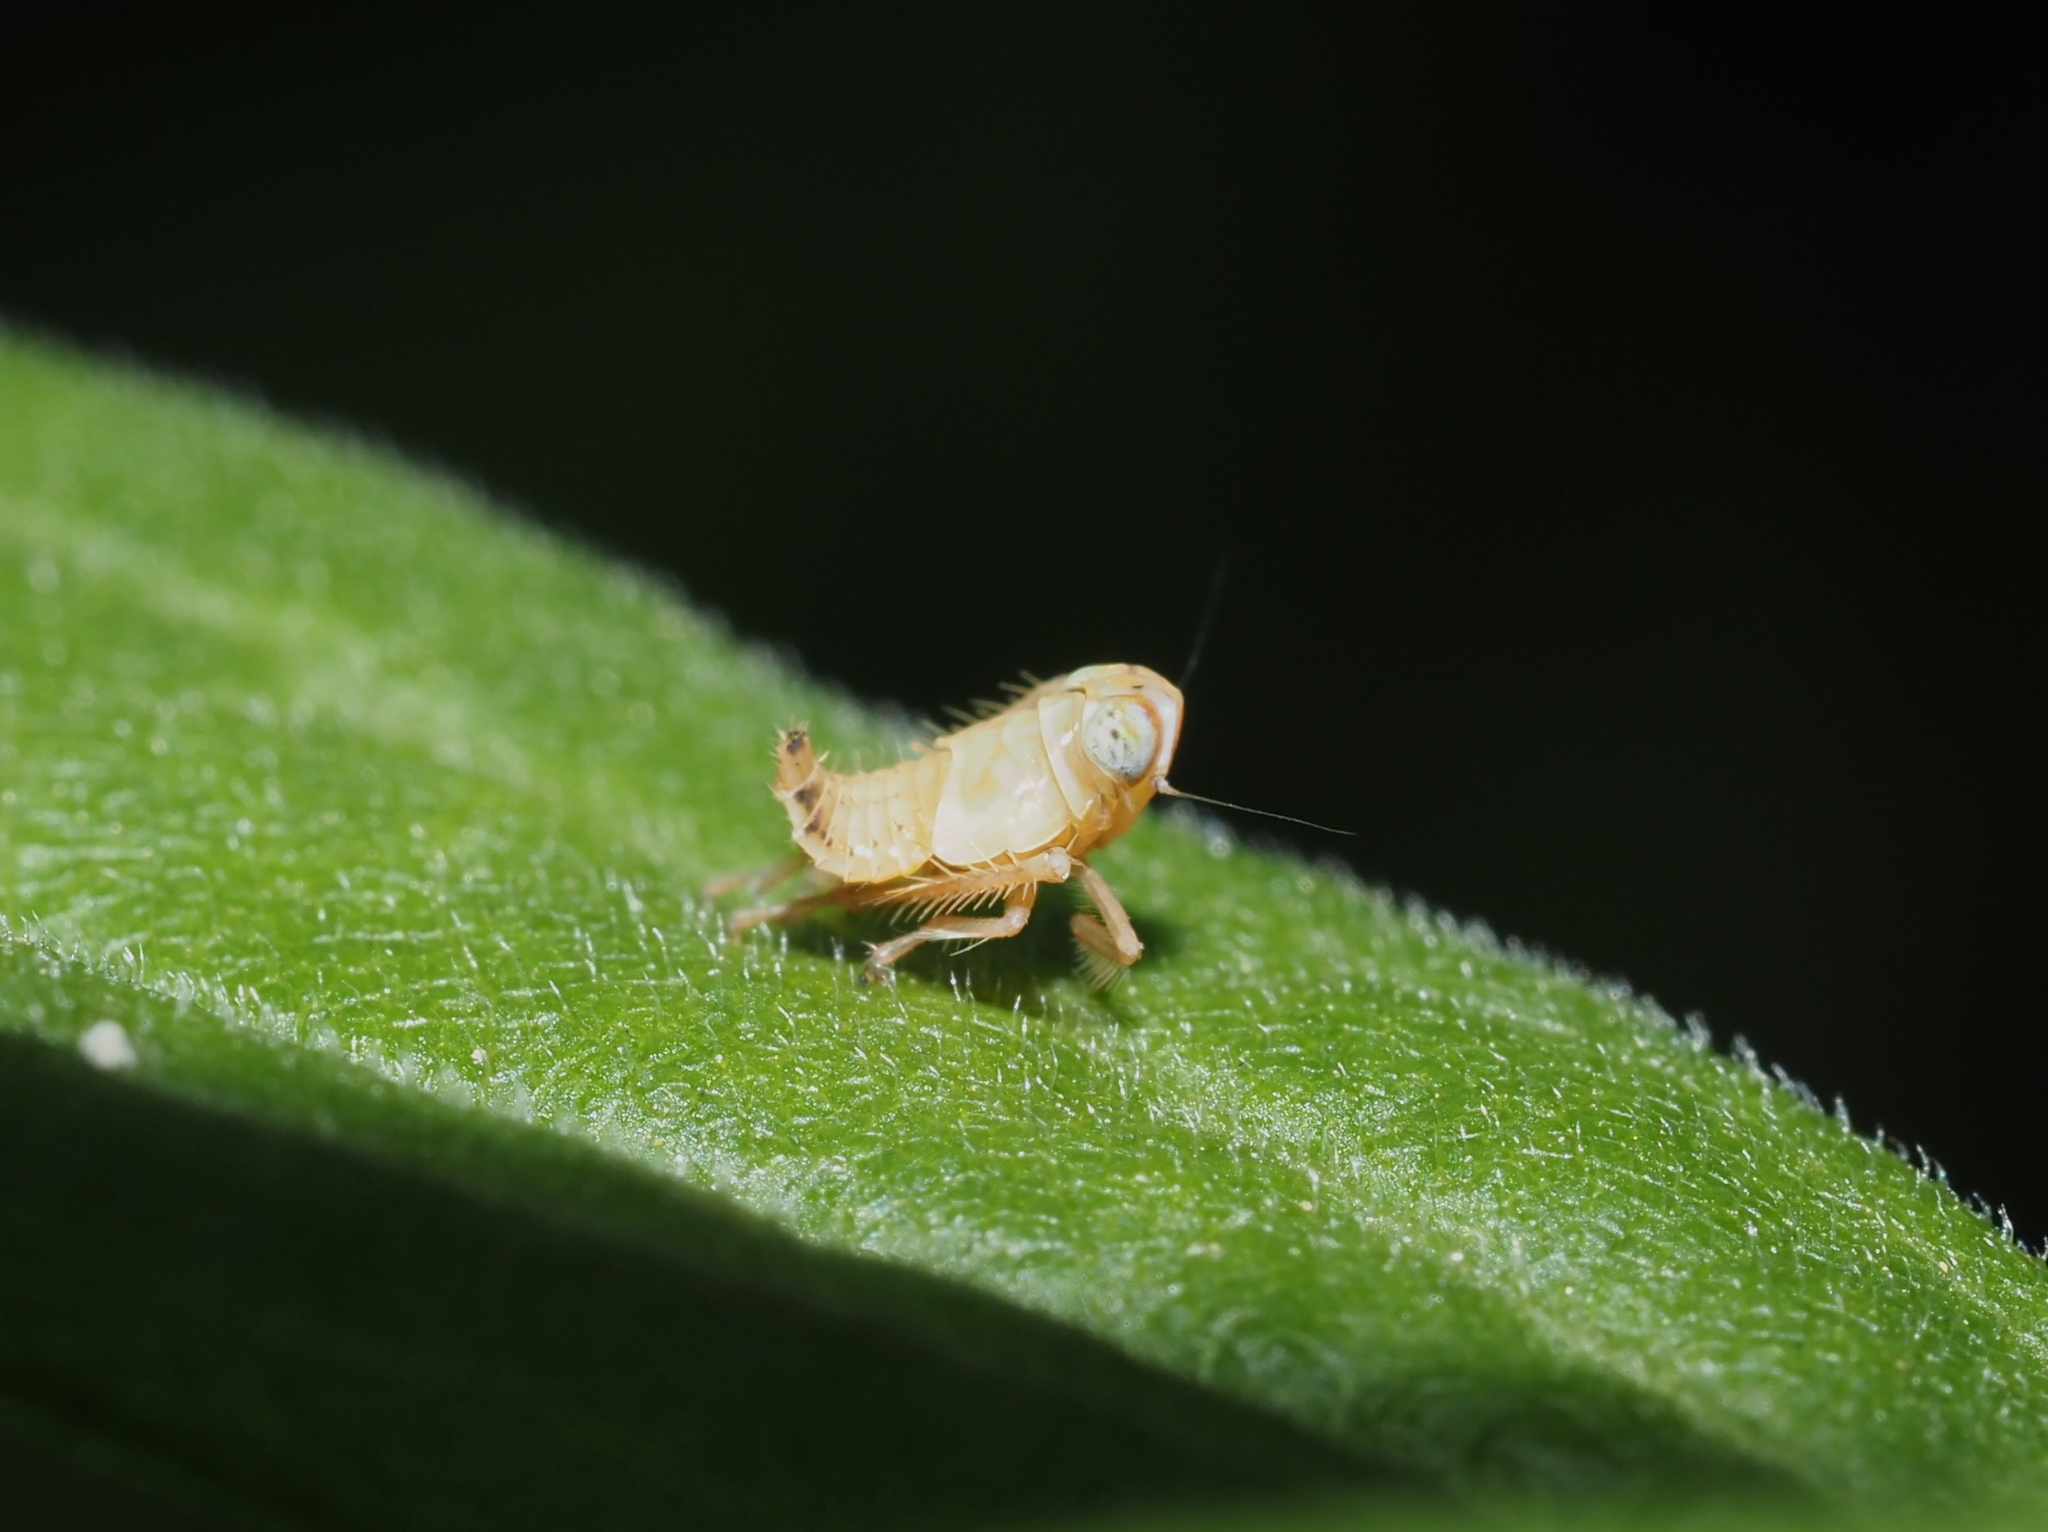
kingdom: Animalia
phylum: Arthropoda
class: Insecta
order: Hemiptera
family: Cicadellidae
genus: Jikradia
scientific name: Jikradia olitoria
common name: Coppery leafhopper
